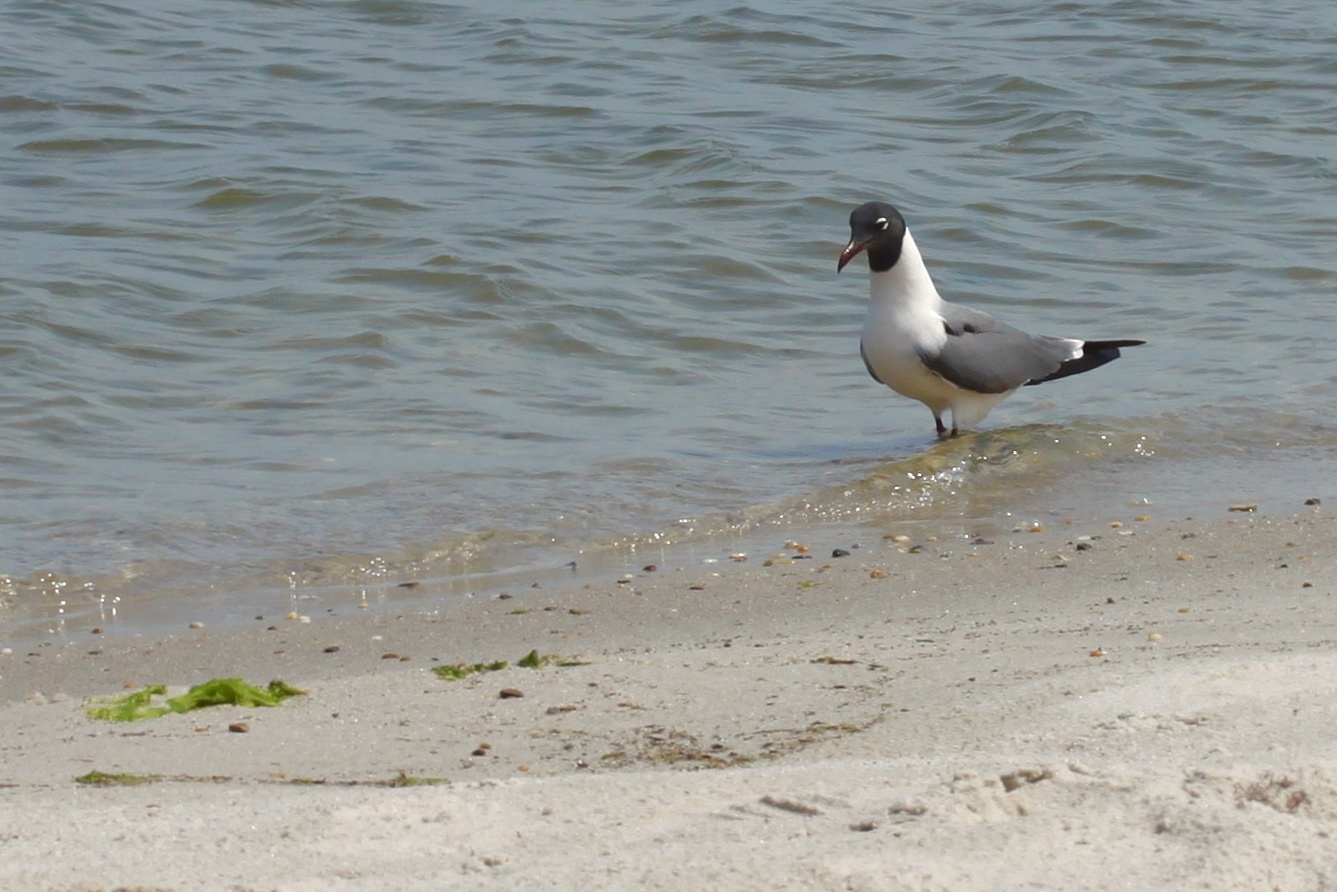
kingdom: Animalia
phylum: Chordata
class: Aves
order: Charadriiformes
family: Laridae
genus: Leucophaeus
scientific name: Leucophaeus atricilla
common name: Laughing gull
